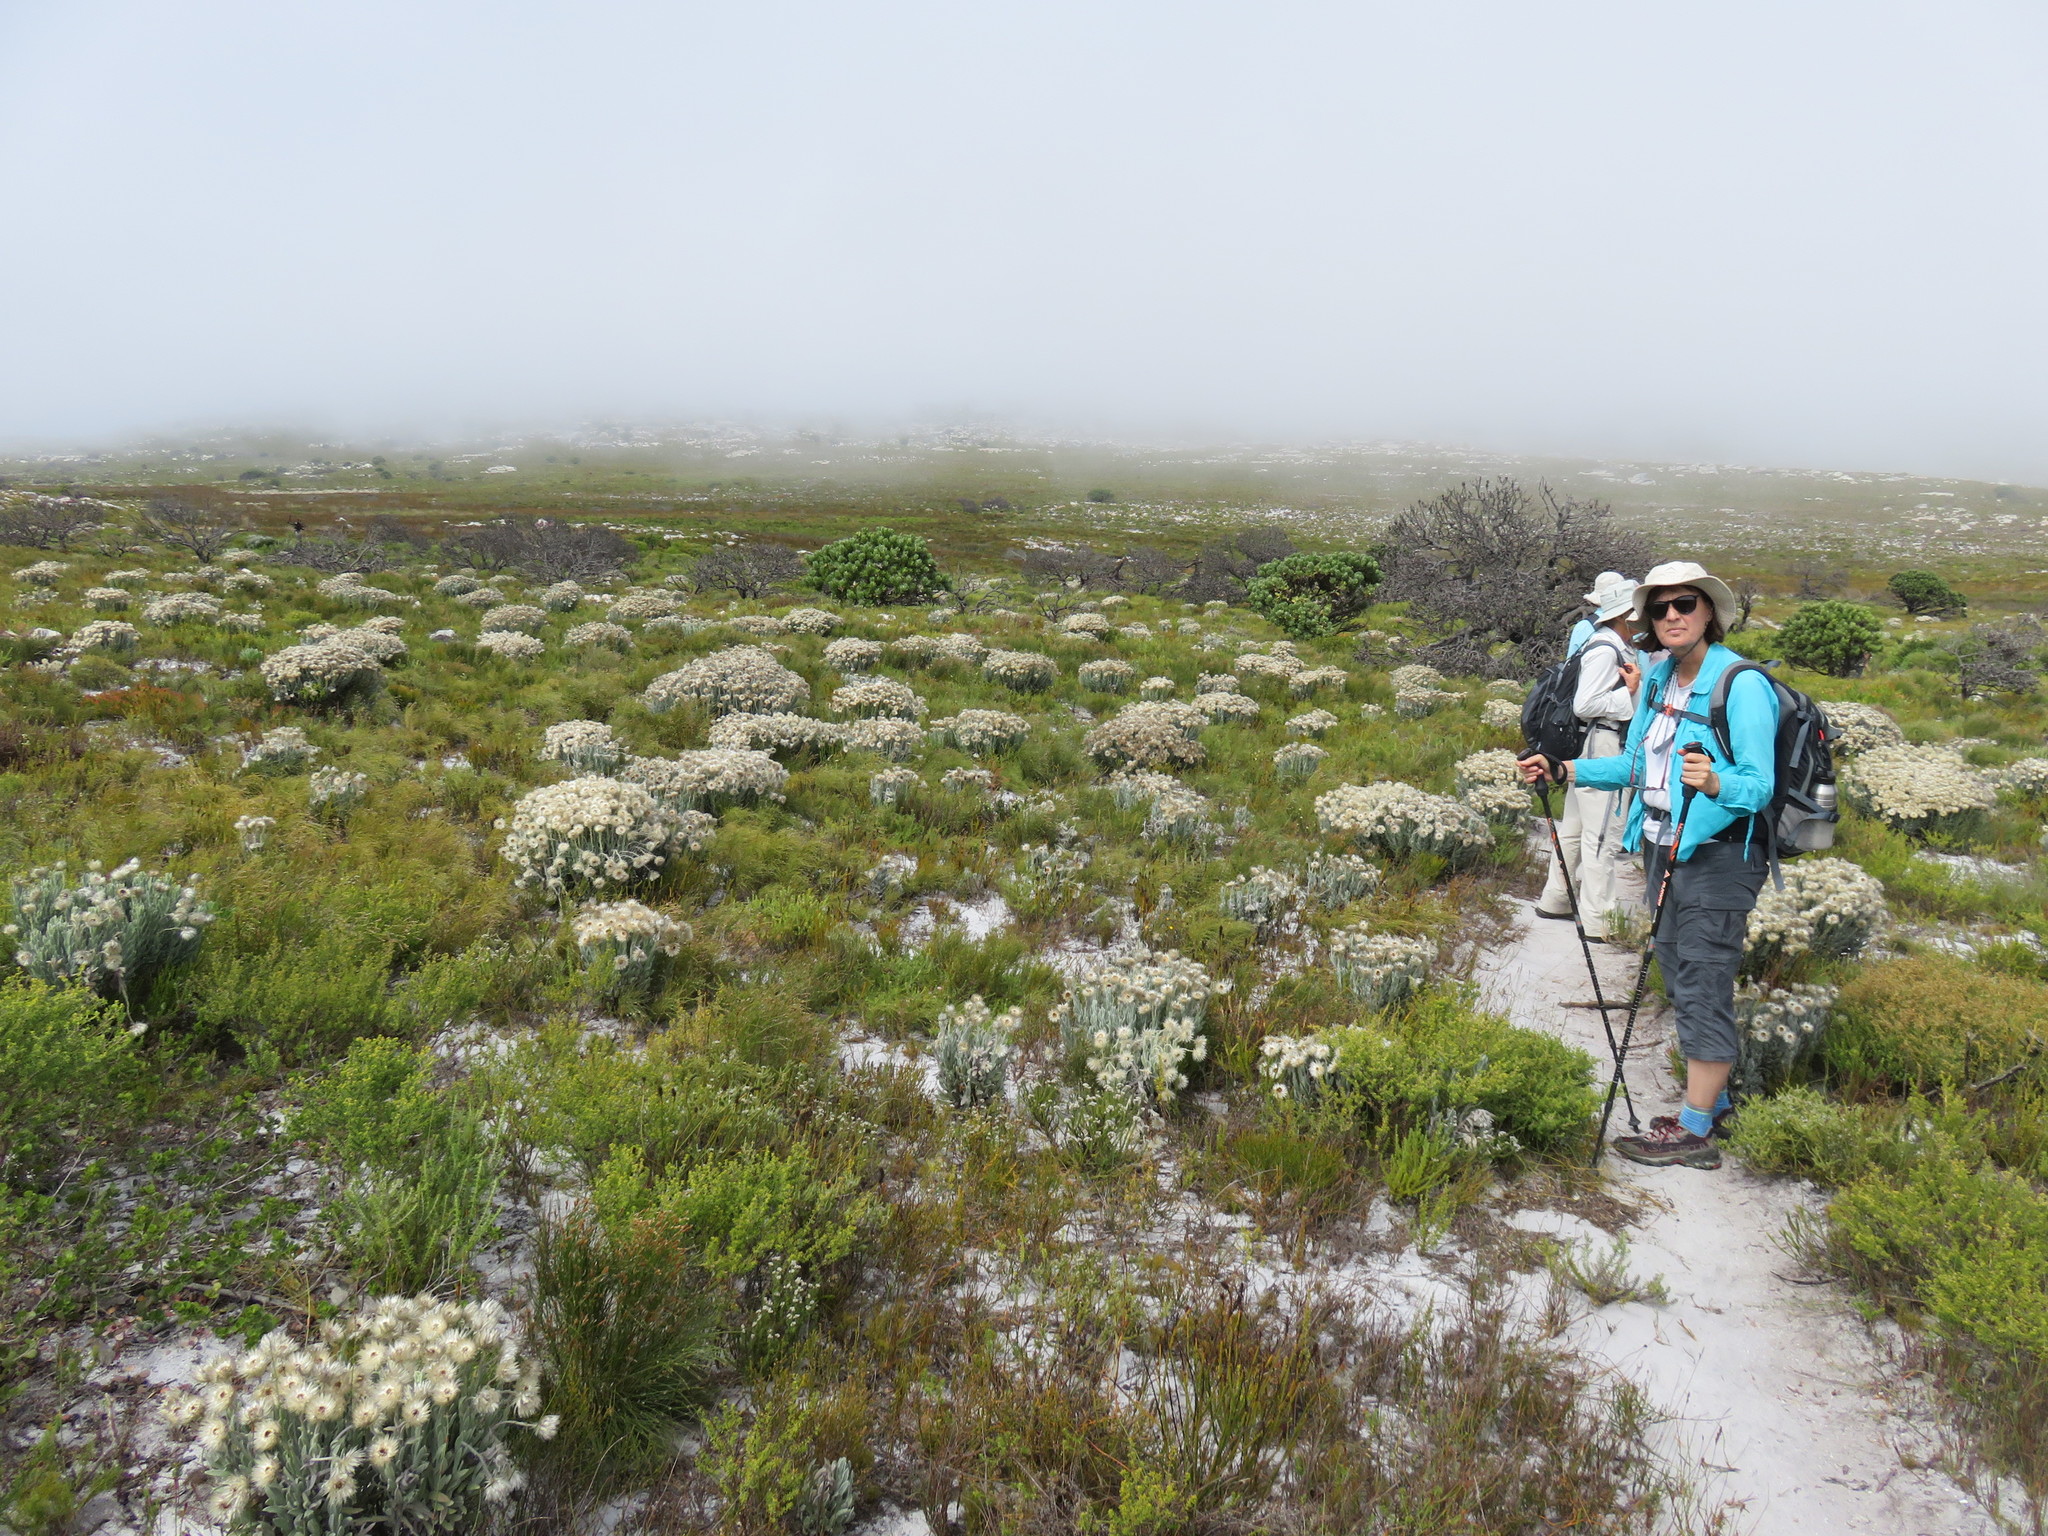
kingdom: Plantae
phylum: Tracheophyta
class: Magnoliopsida
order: Asterales
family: Asteraceae
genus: Syncarpha
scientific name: Syncarpha vestita
